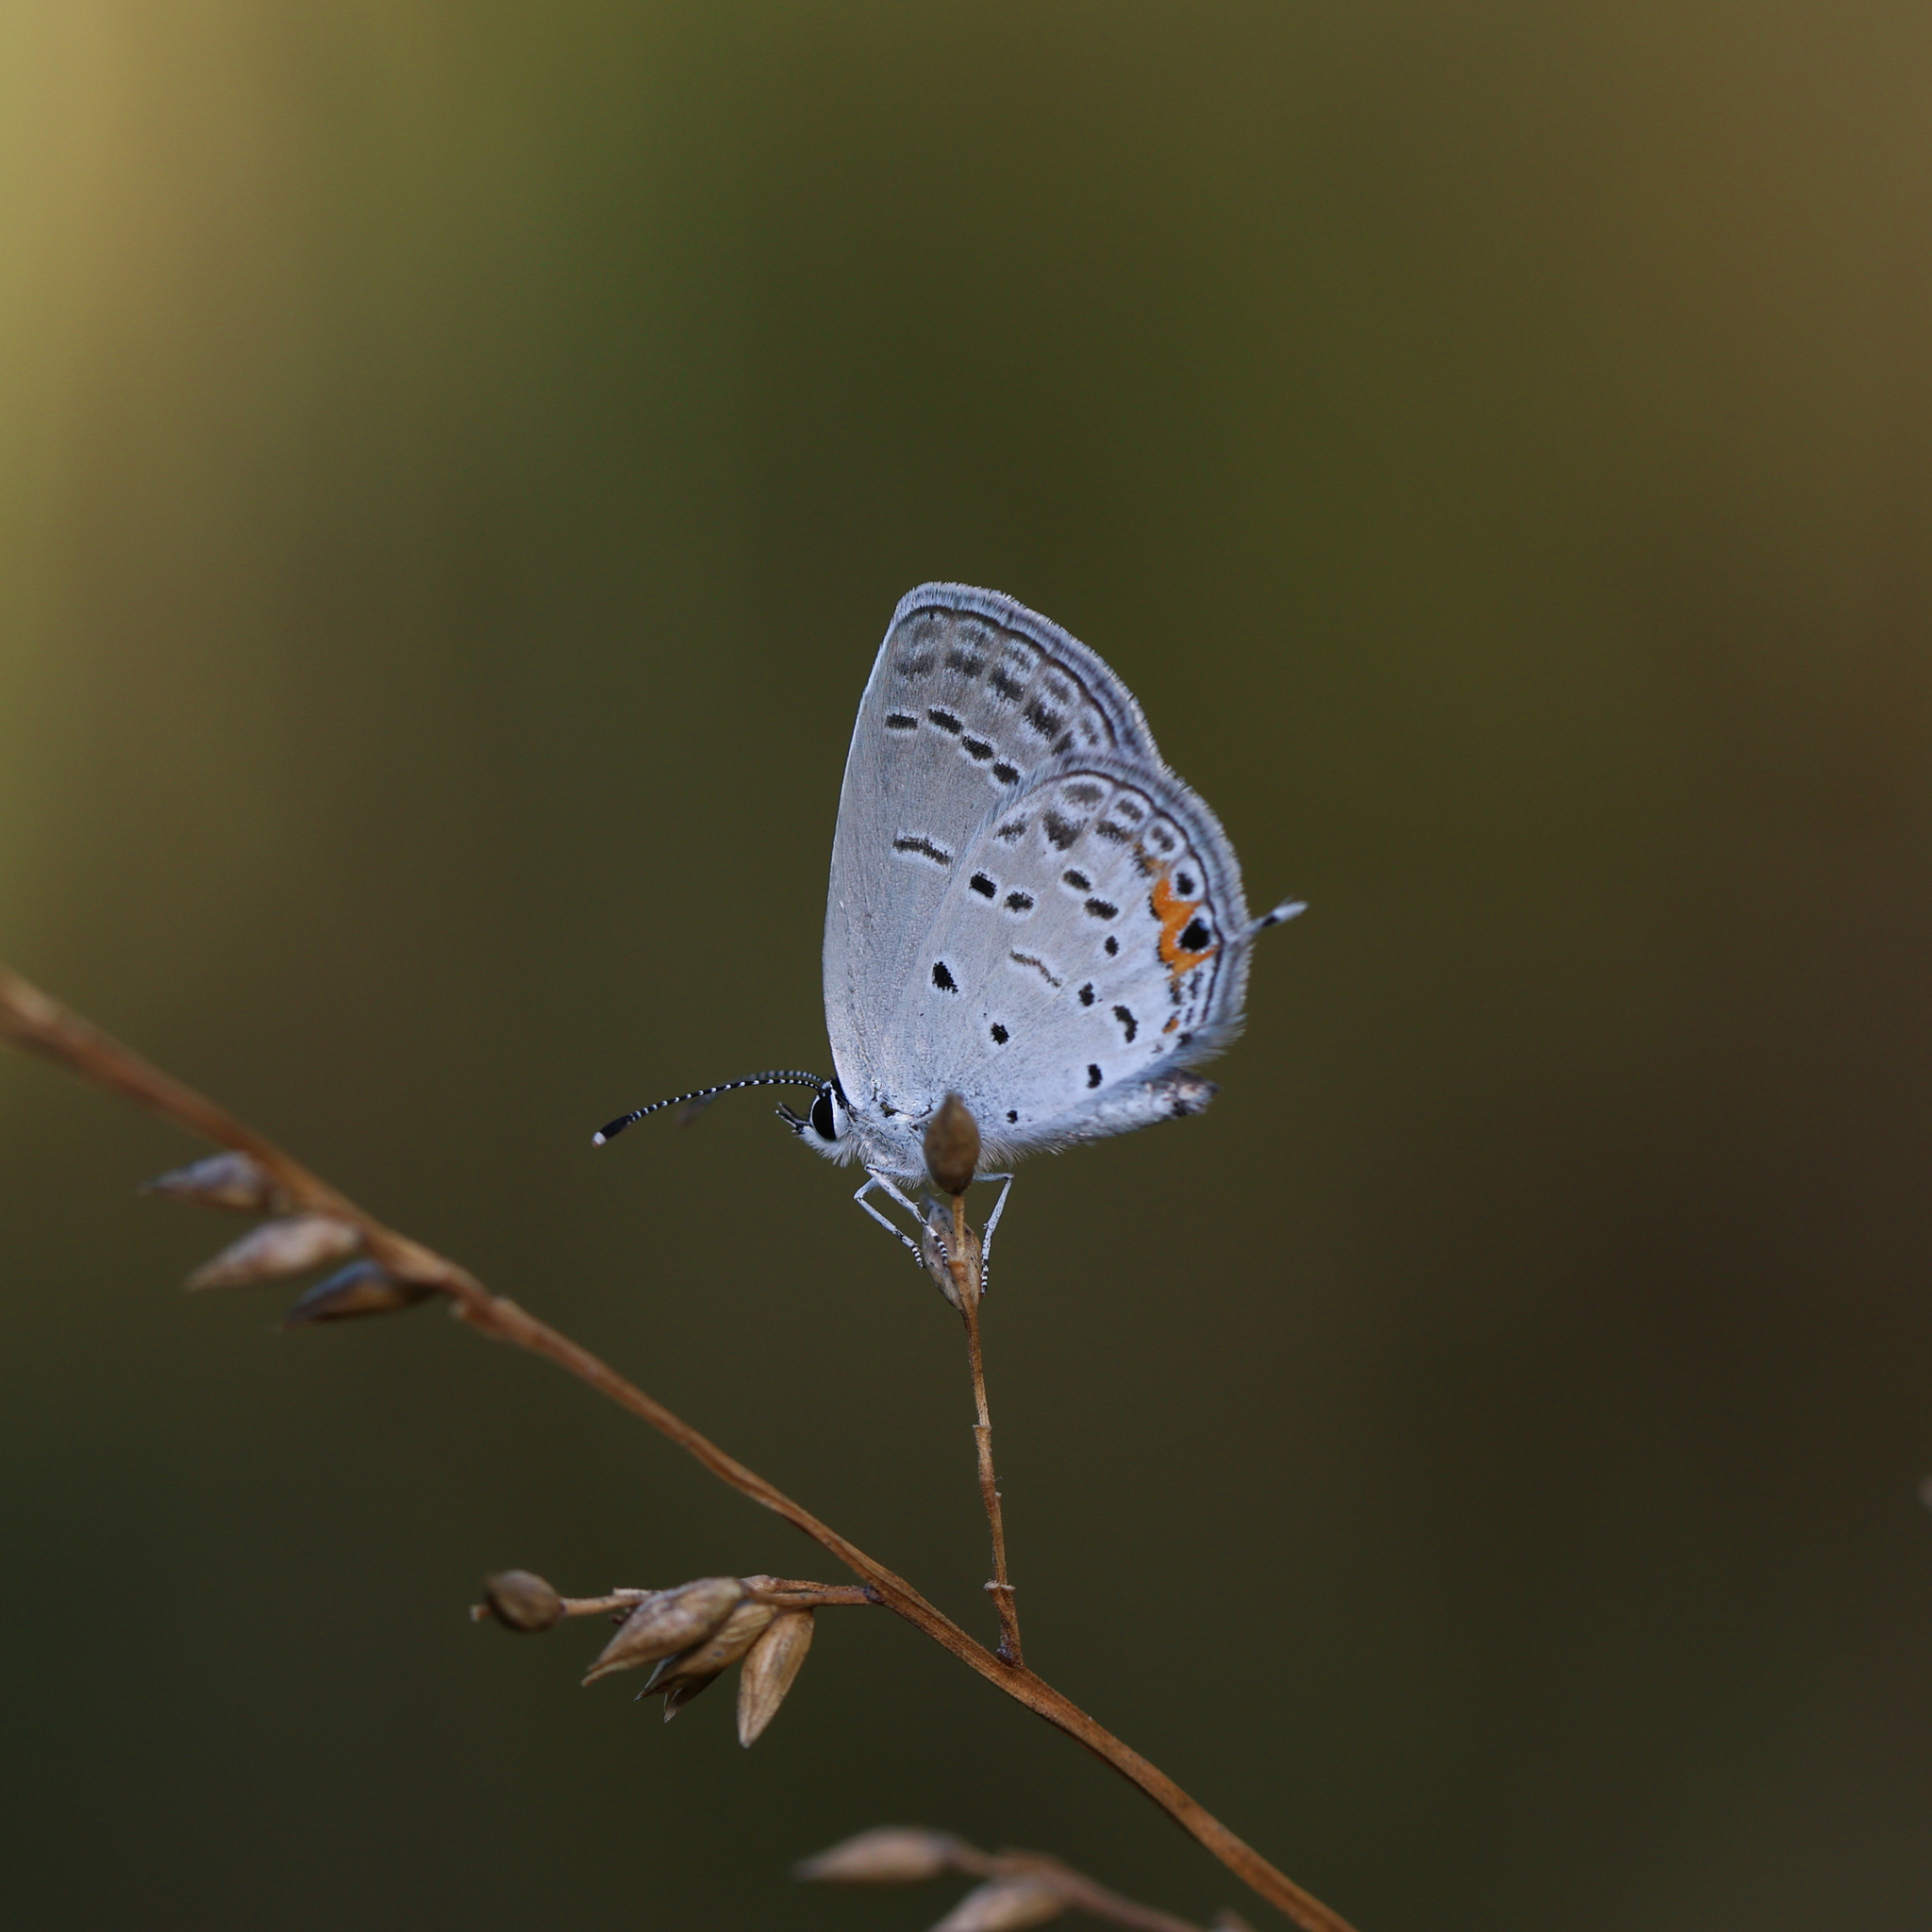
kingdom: Animalia
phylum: Arthropoda
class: Insecta
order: Lepidoptera
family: Lycaenidae
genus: Elkalyce
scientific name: Elkalyce comyntas
